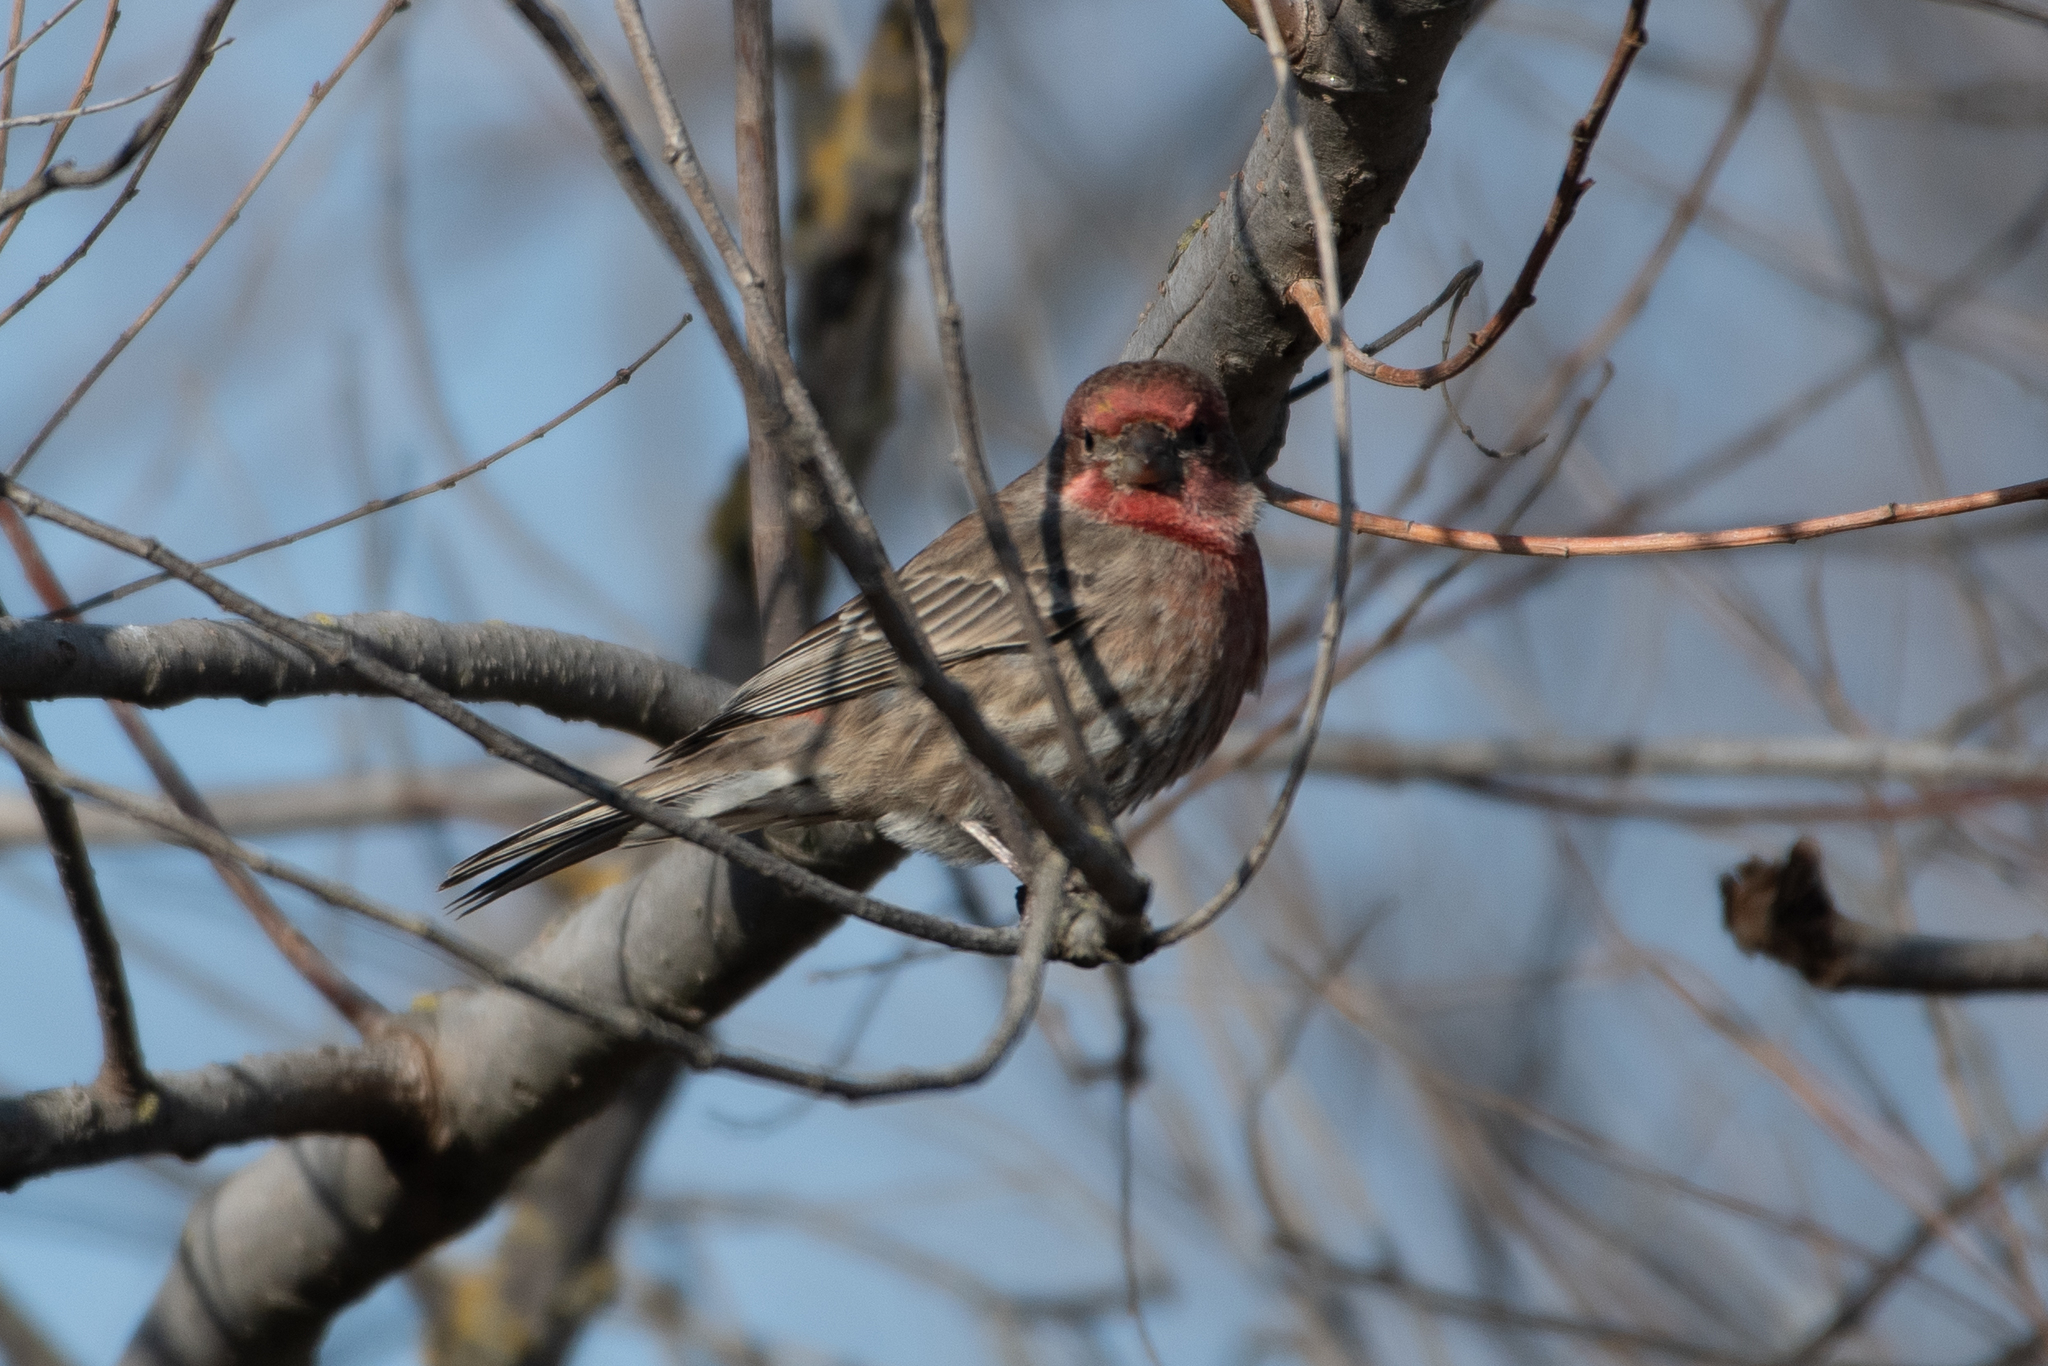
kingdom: Animalia
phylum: Chordata
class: Aves
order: Passeriformes
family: Fringillidae
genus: Haemorhous
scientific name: Haemorhous mexicanus
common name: House finch
